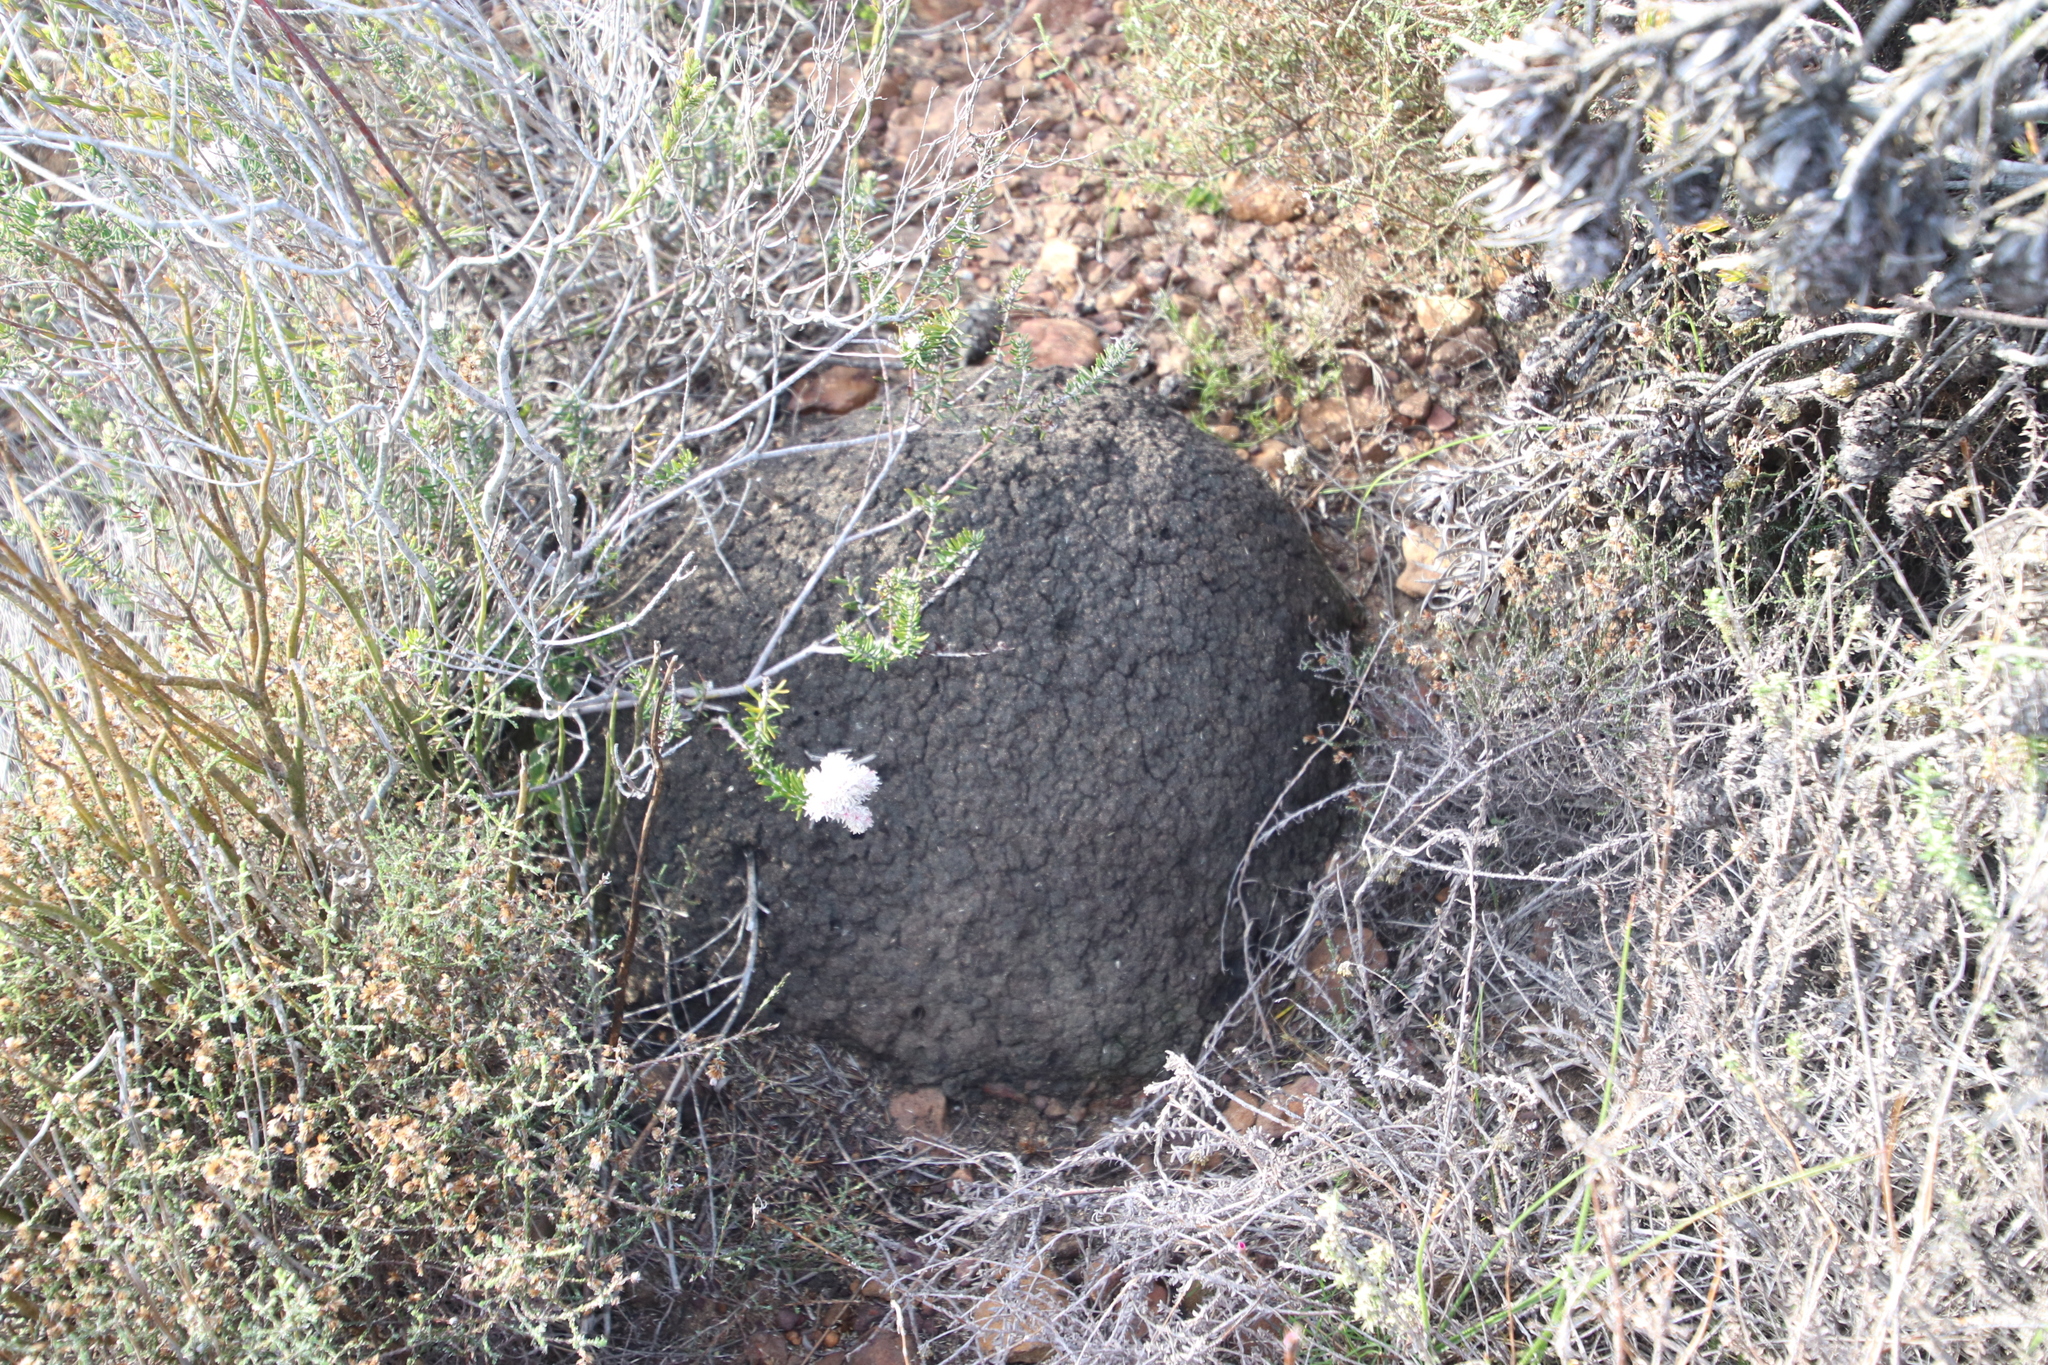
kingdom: Animalia
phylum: Arthropoda
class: Insecta
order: Blattodea
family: Termitidae
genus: Amitermes
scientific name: Amitermes hastatus
